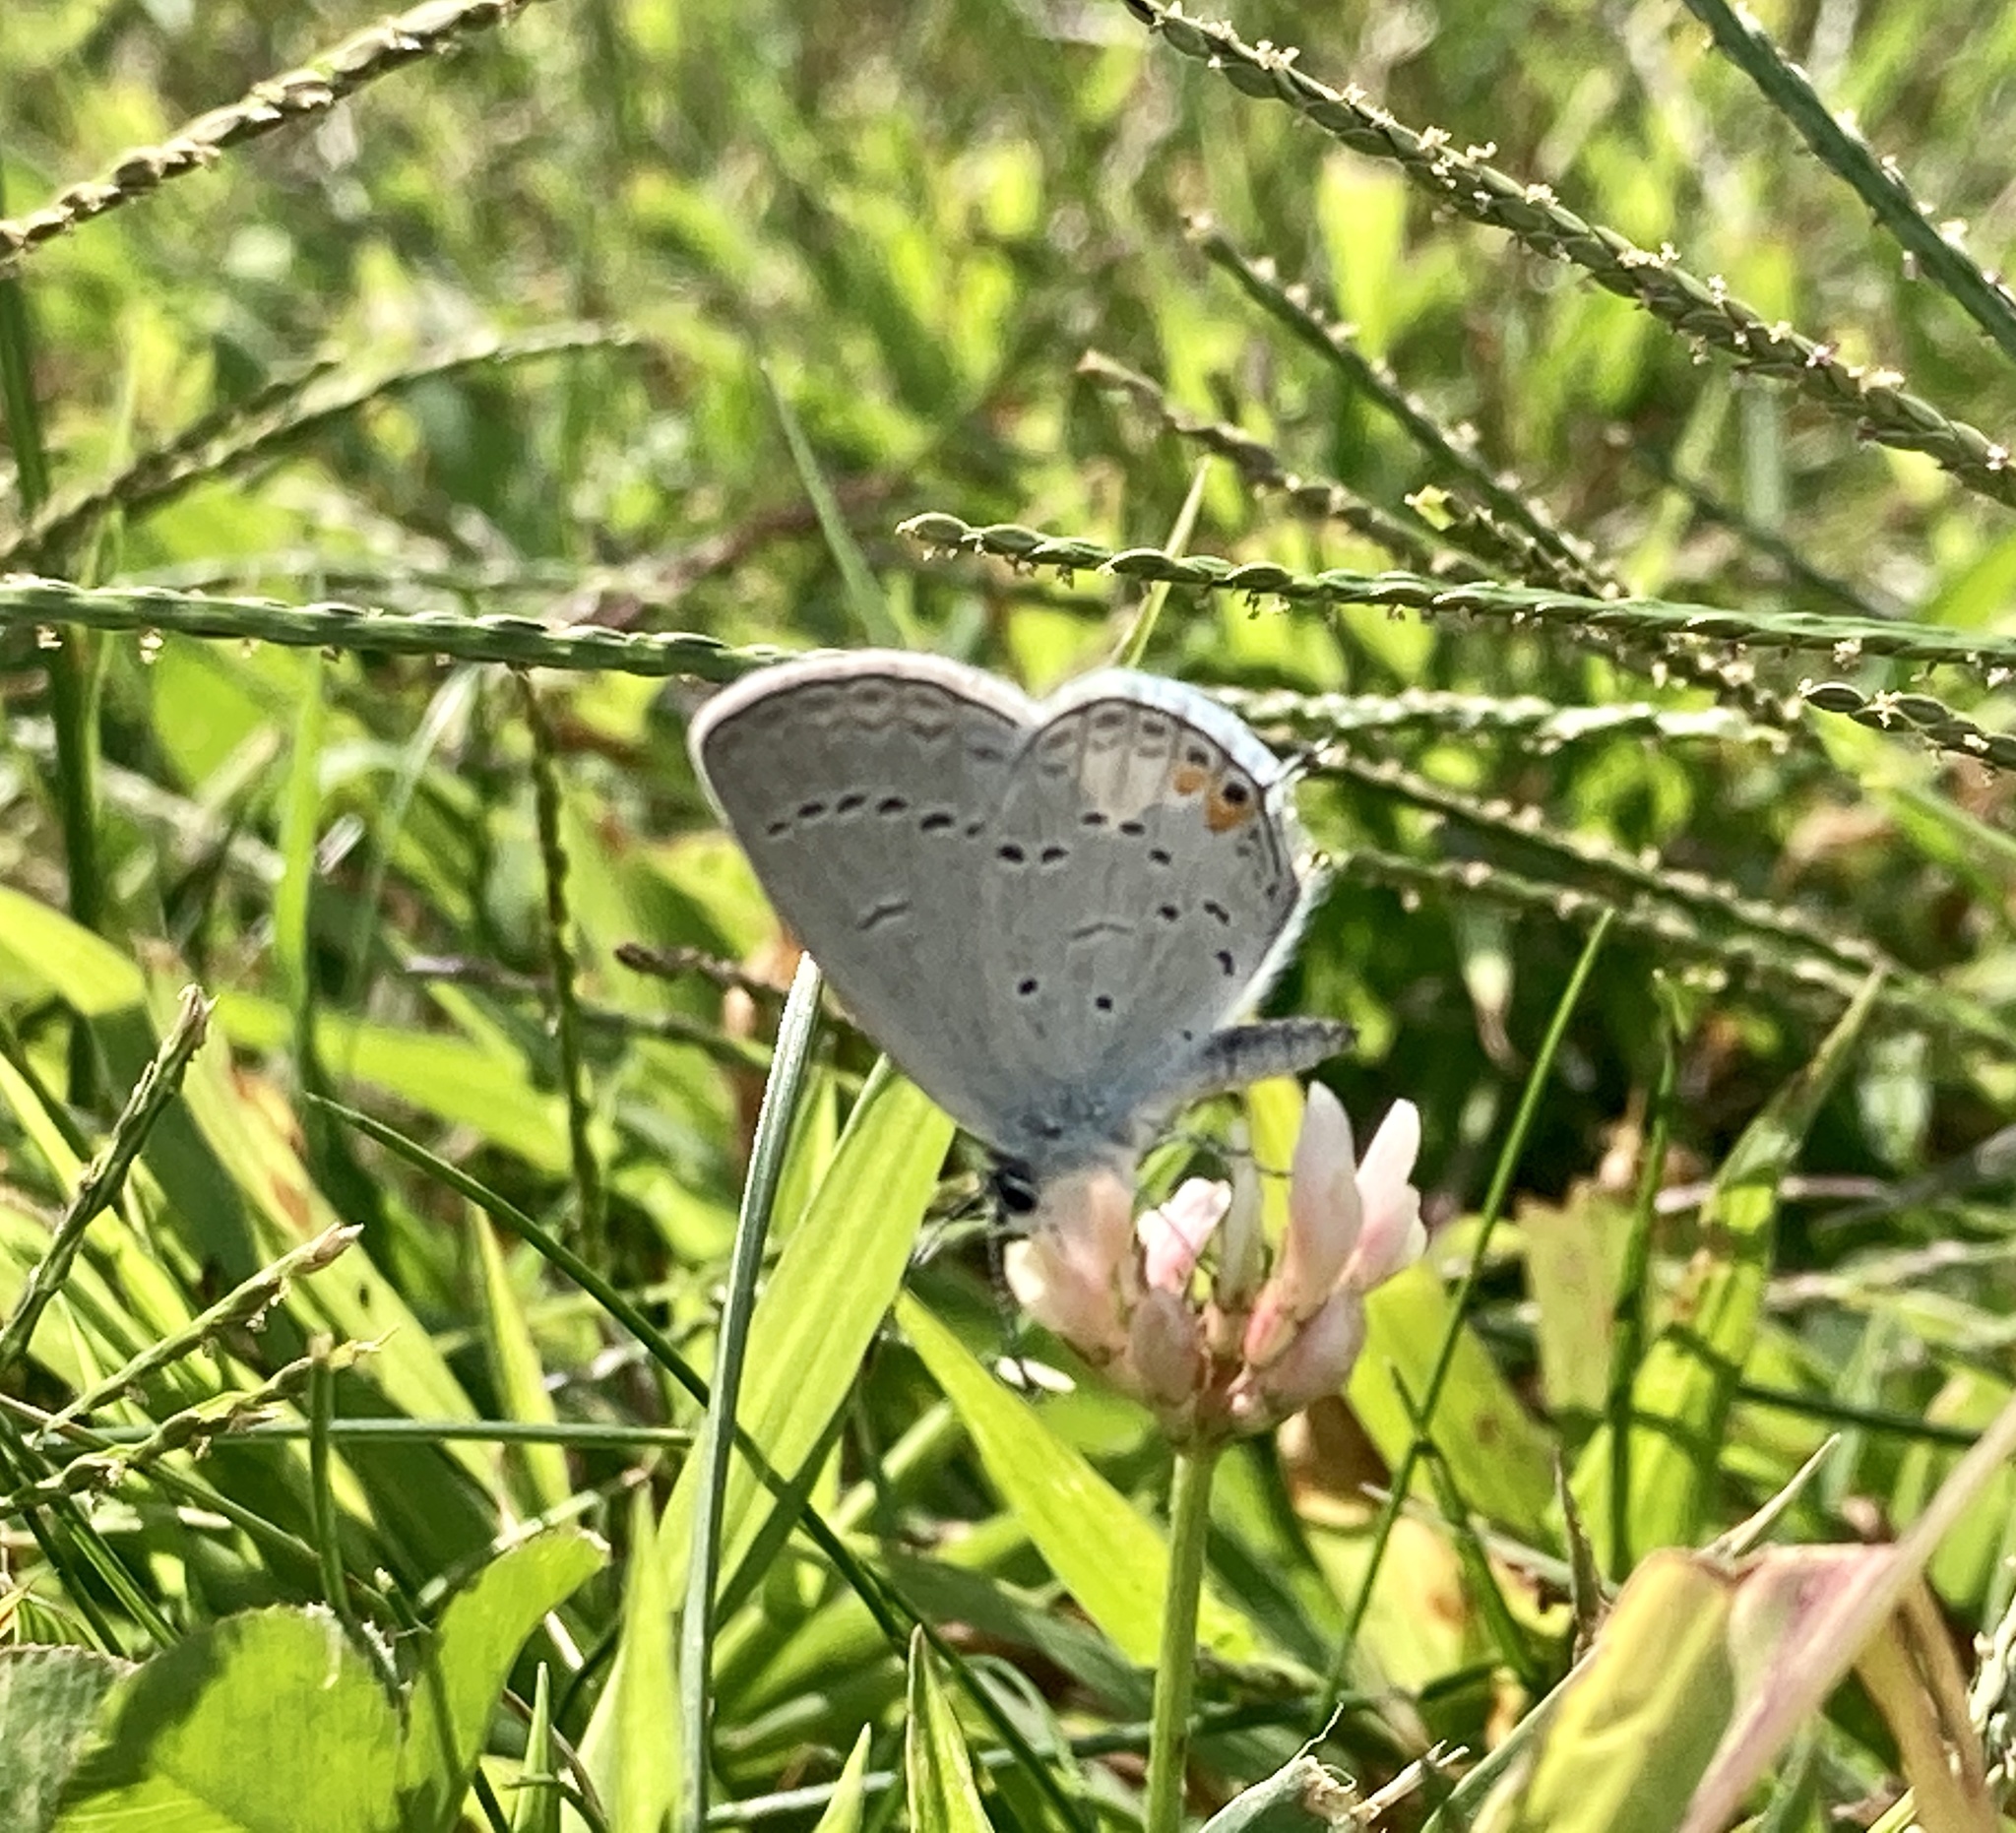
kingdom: Animalia
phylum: Arthropoda
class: Insecta
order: Lepidoptera
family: Lycaenidae
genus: Elkalyce
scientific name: Elkalyce comyntas
